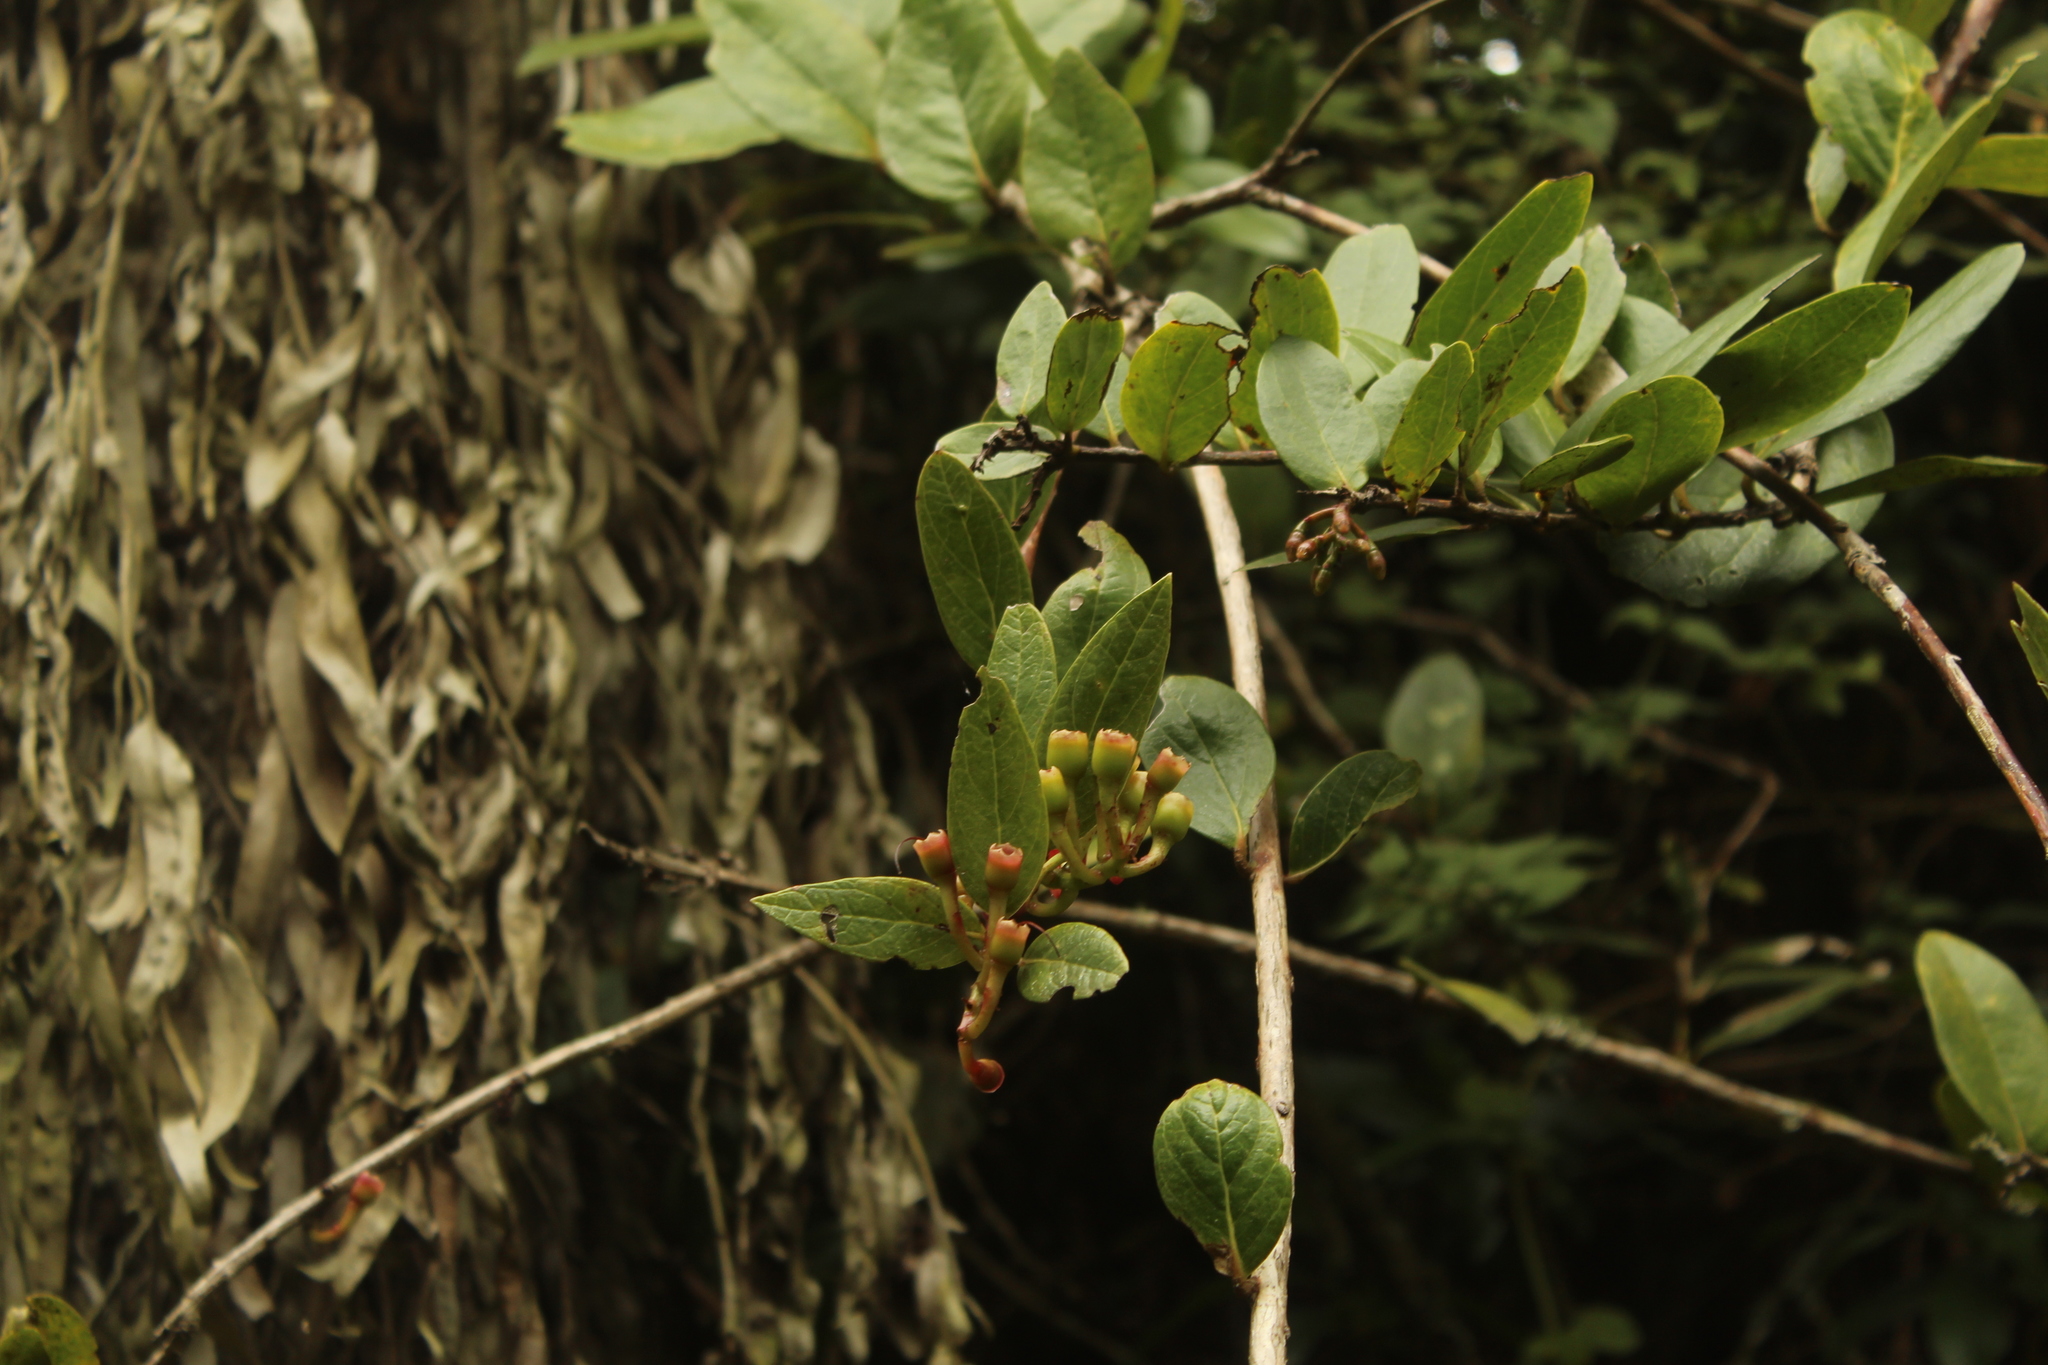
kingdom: Plantae
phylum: Tracheophyta
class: Magnoliopsida
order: Ericales
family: Ericaceae
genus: Macleania
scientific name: Macleania rupestris
